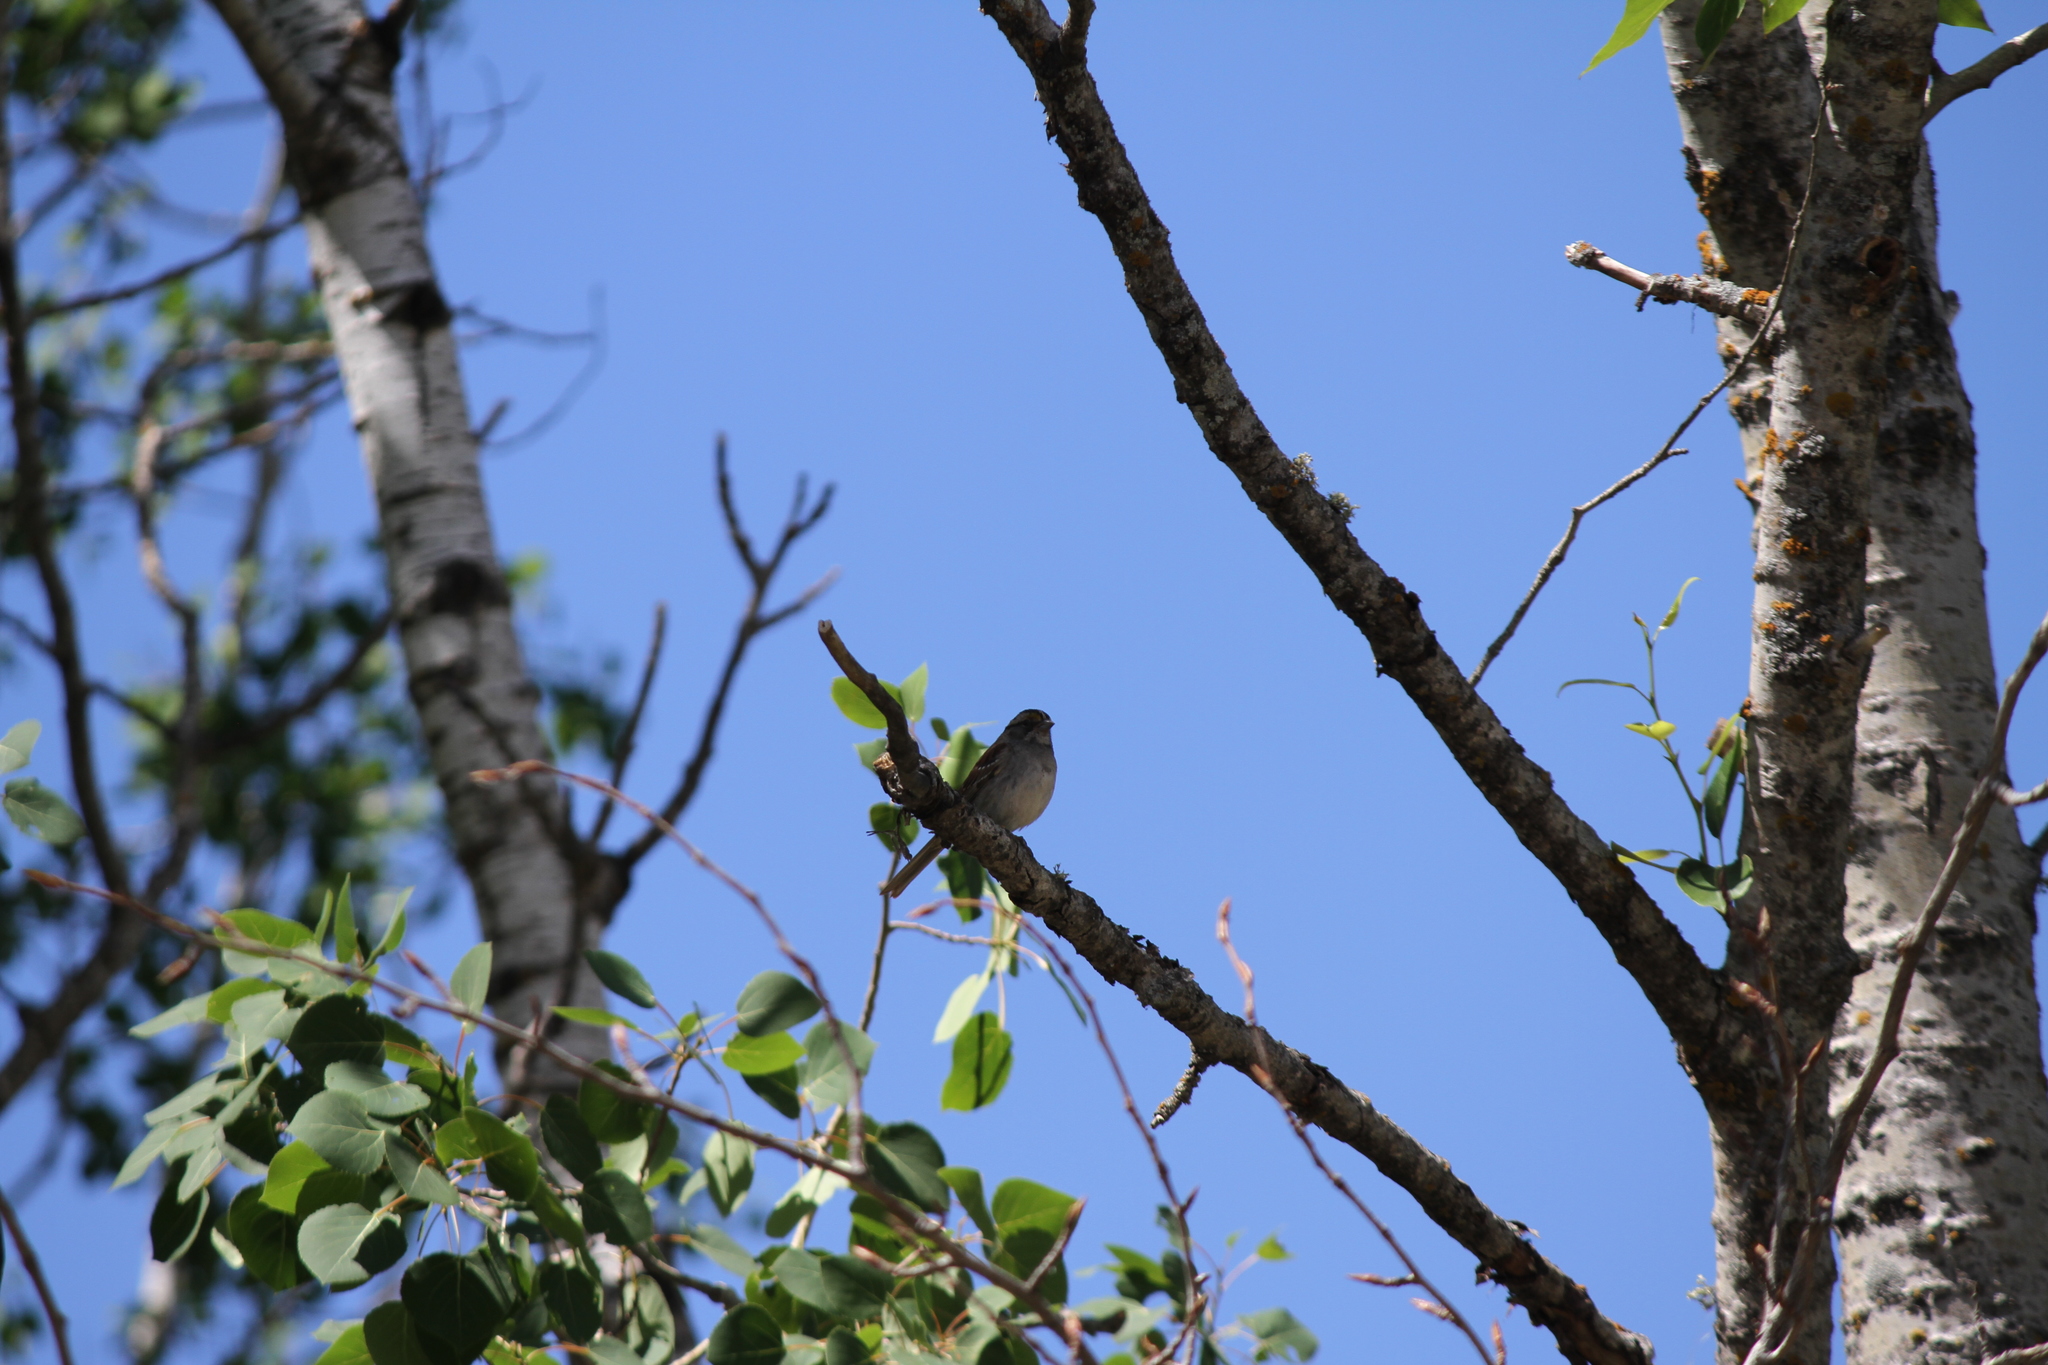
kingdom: Animalia
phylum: Chordata
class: Aves
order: Passeriformes
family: Passerellidae
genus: Zonotrichia
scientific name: Zonotrichia albicollis
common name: White-throated sparrow
